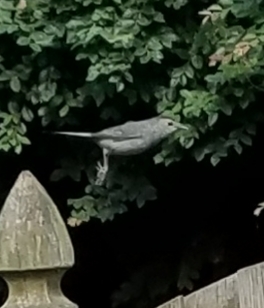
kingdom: Animalia
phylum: Chordata
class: Aves
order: Passeriformes
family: Mimidae
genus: Dumetella
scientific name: Dumetella carolinensis
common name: Gray catbird
